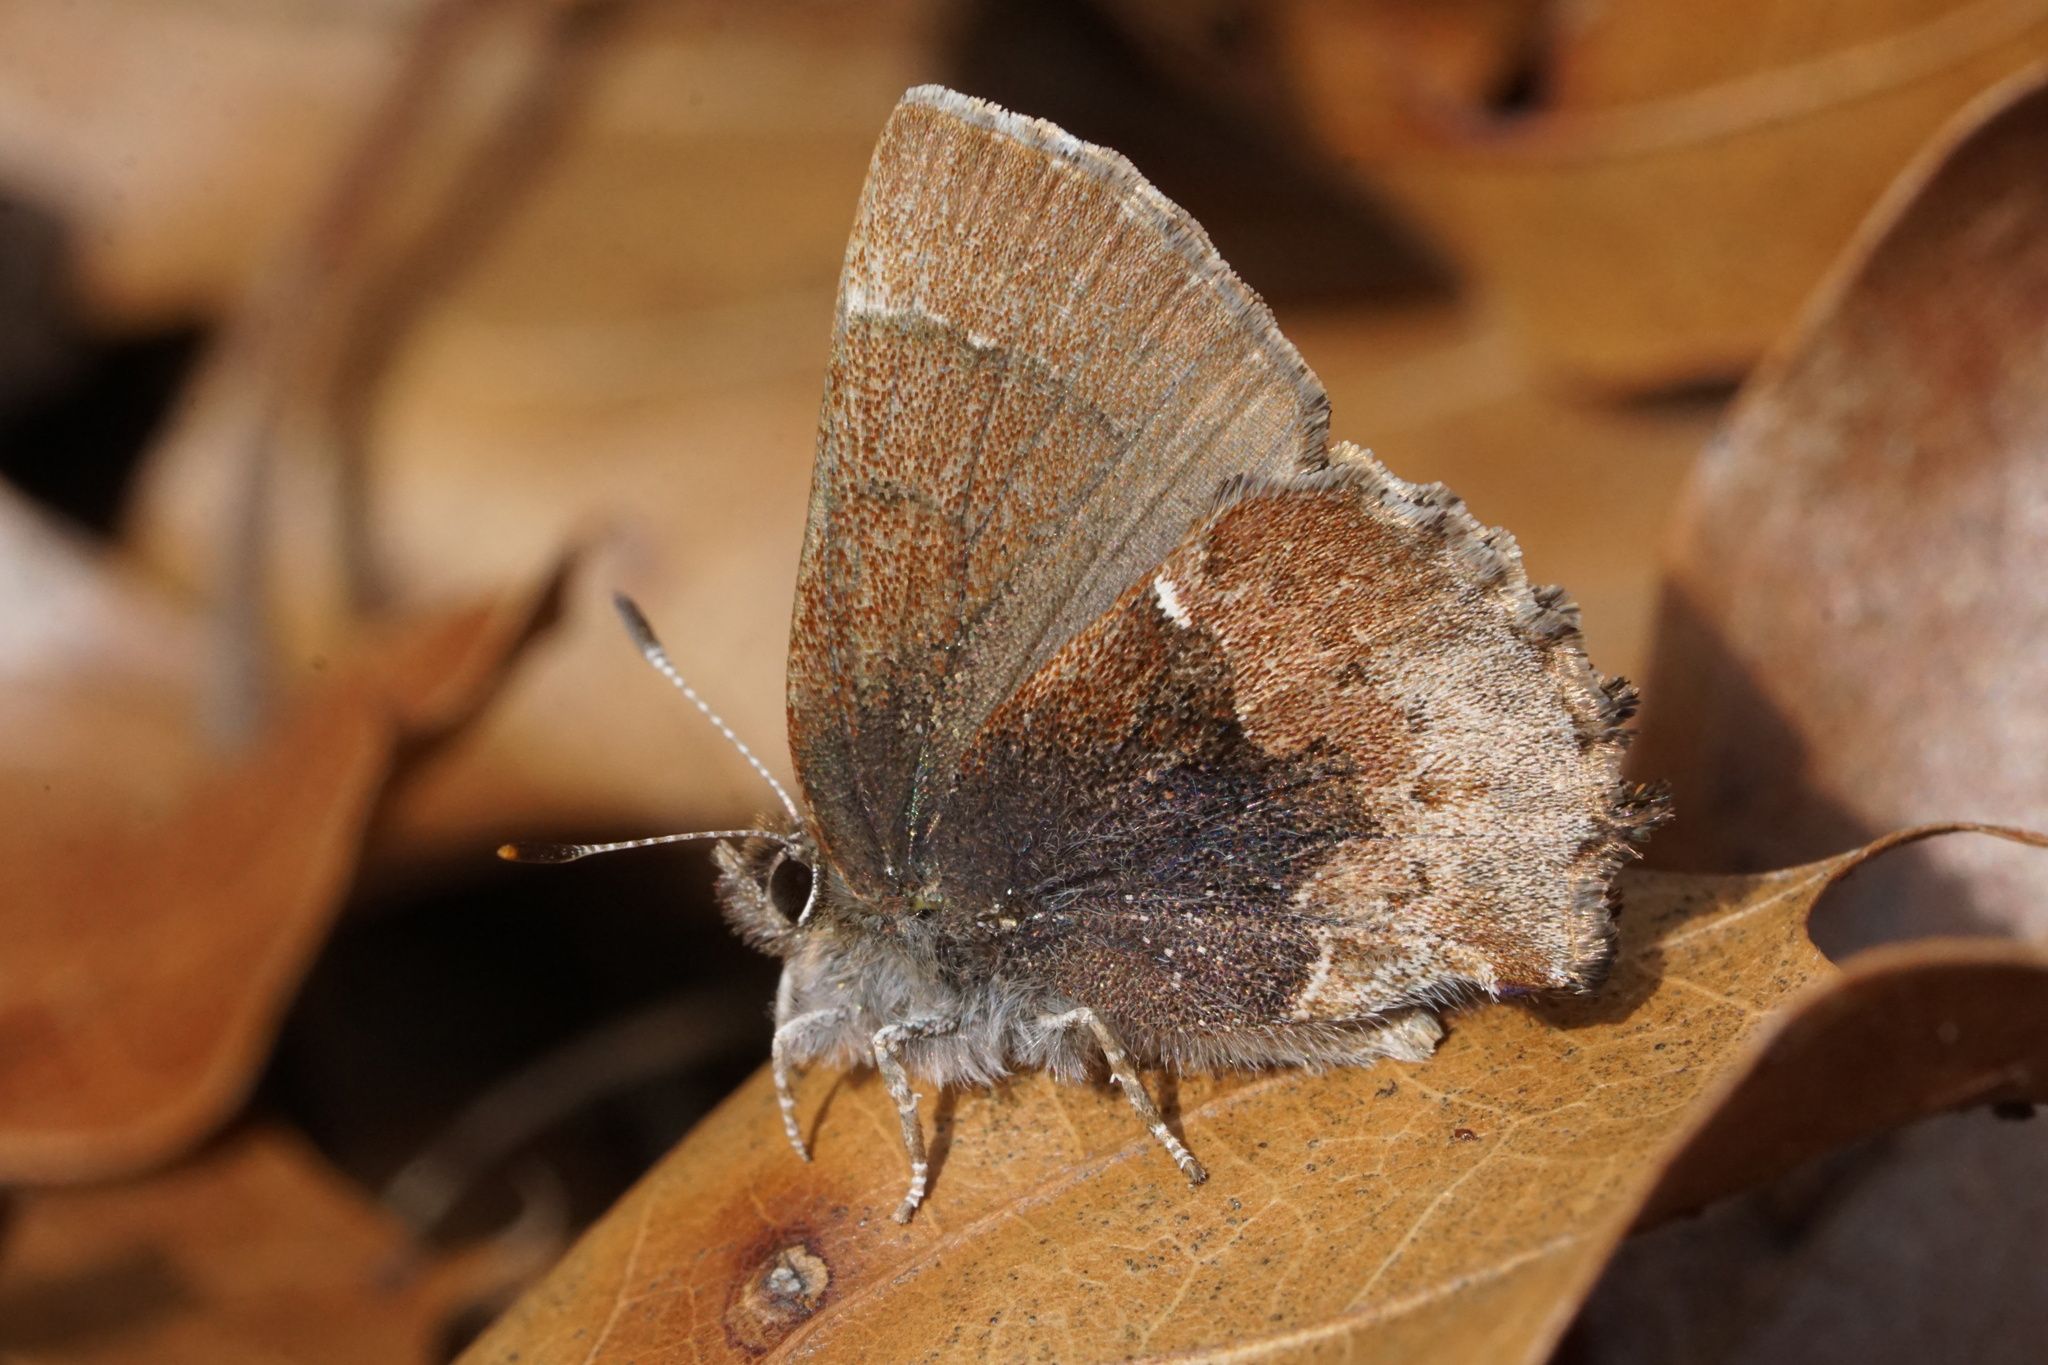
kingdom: Animalia
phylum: Arthropoda
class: Insecta
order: Lepidoptera
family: Lycaenidae
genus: Incisalia
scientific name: Incisalia henrici
